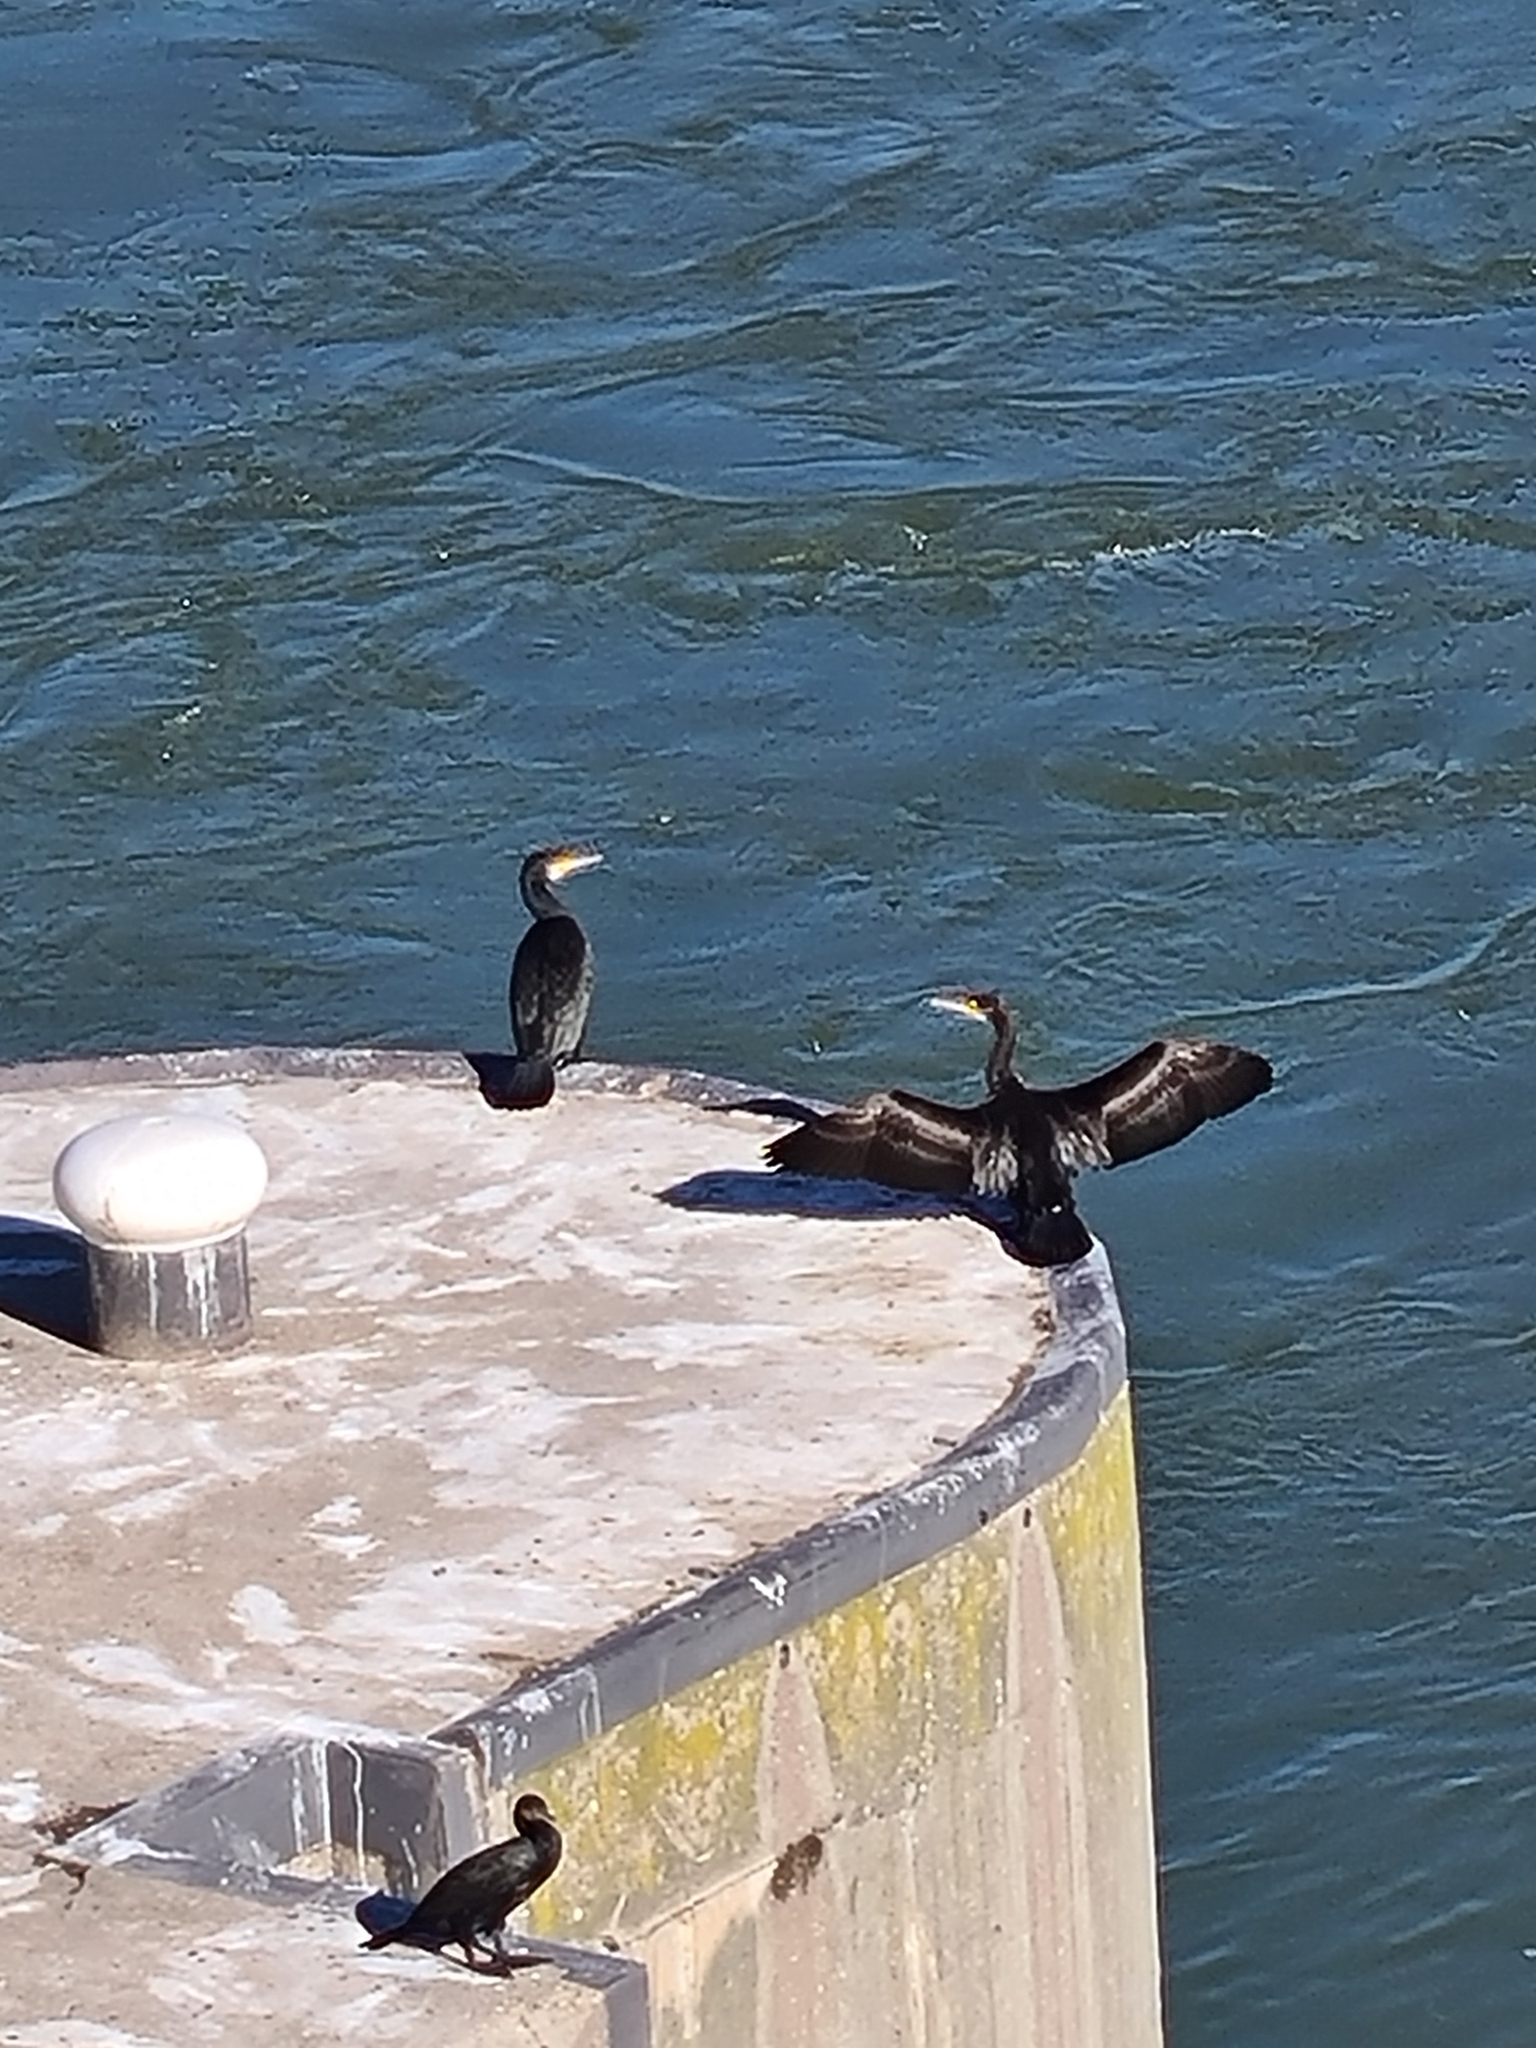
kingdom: Animalia
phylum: Chordata
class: Aves
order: Suliformes
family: Phalacrocoracidae
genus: Phalacrocorax
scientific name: Phalacrocorax carbo
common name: Great cormorant
